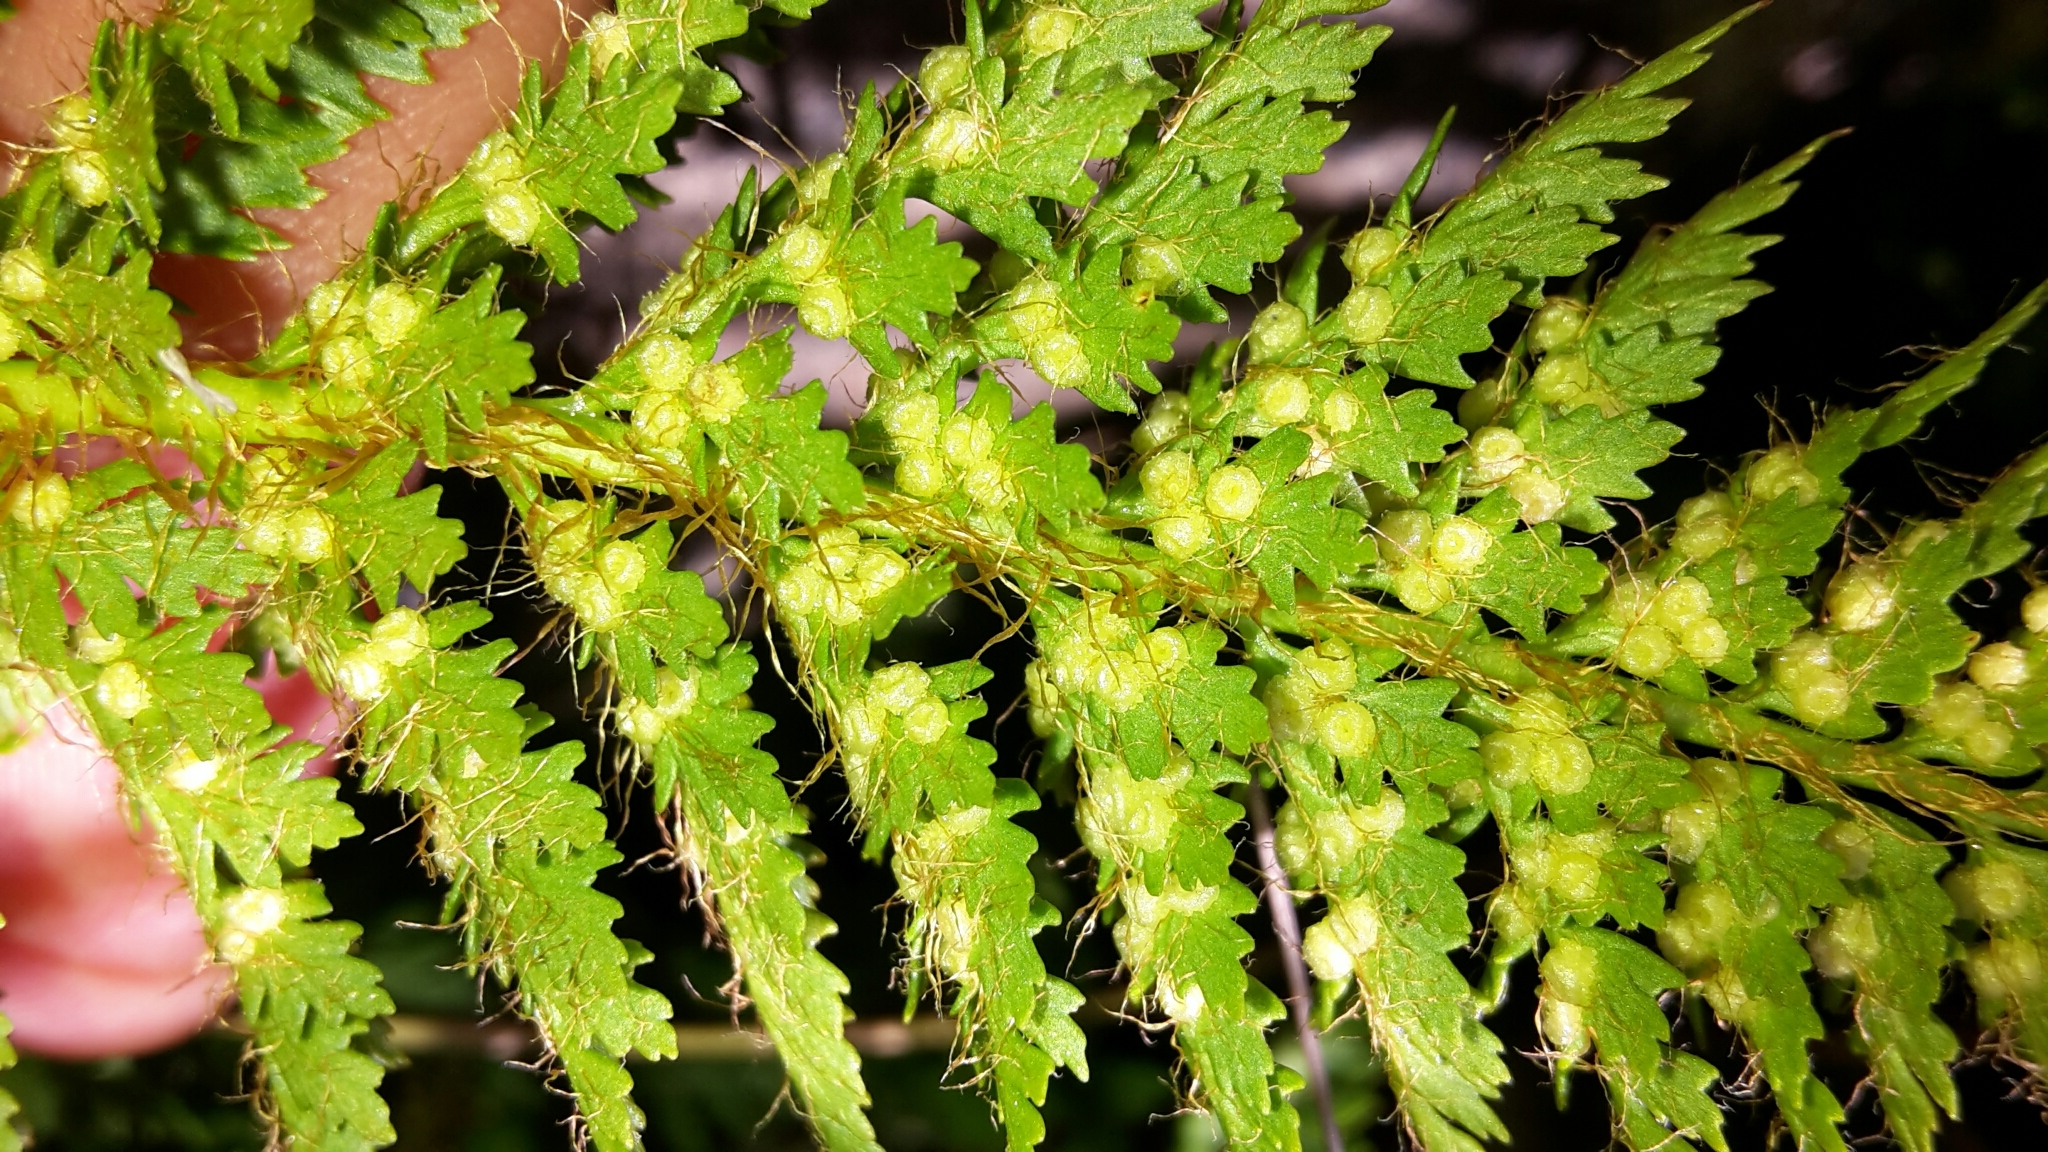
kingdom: Plantae
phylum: Tracheophyta
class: Polypodiopsida
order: Polypodiales
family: Dryopteridaceae
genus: Polystichum
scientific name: Polystichum cystostegia
